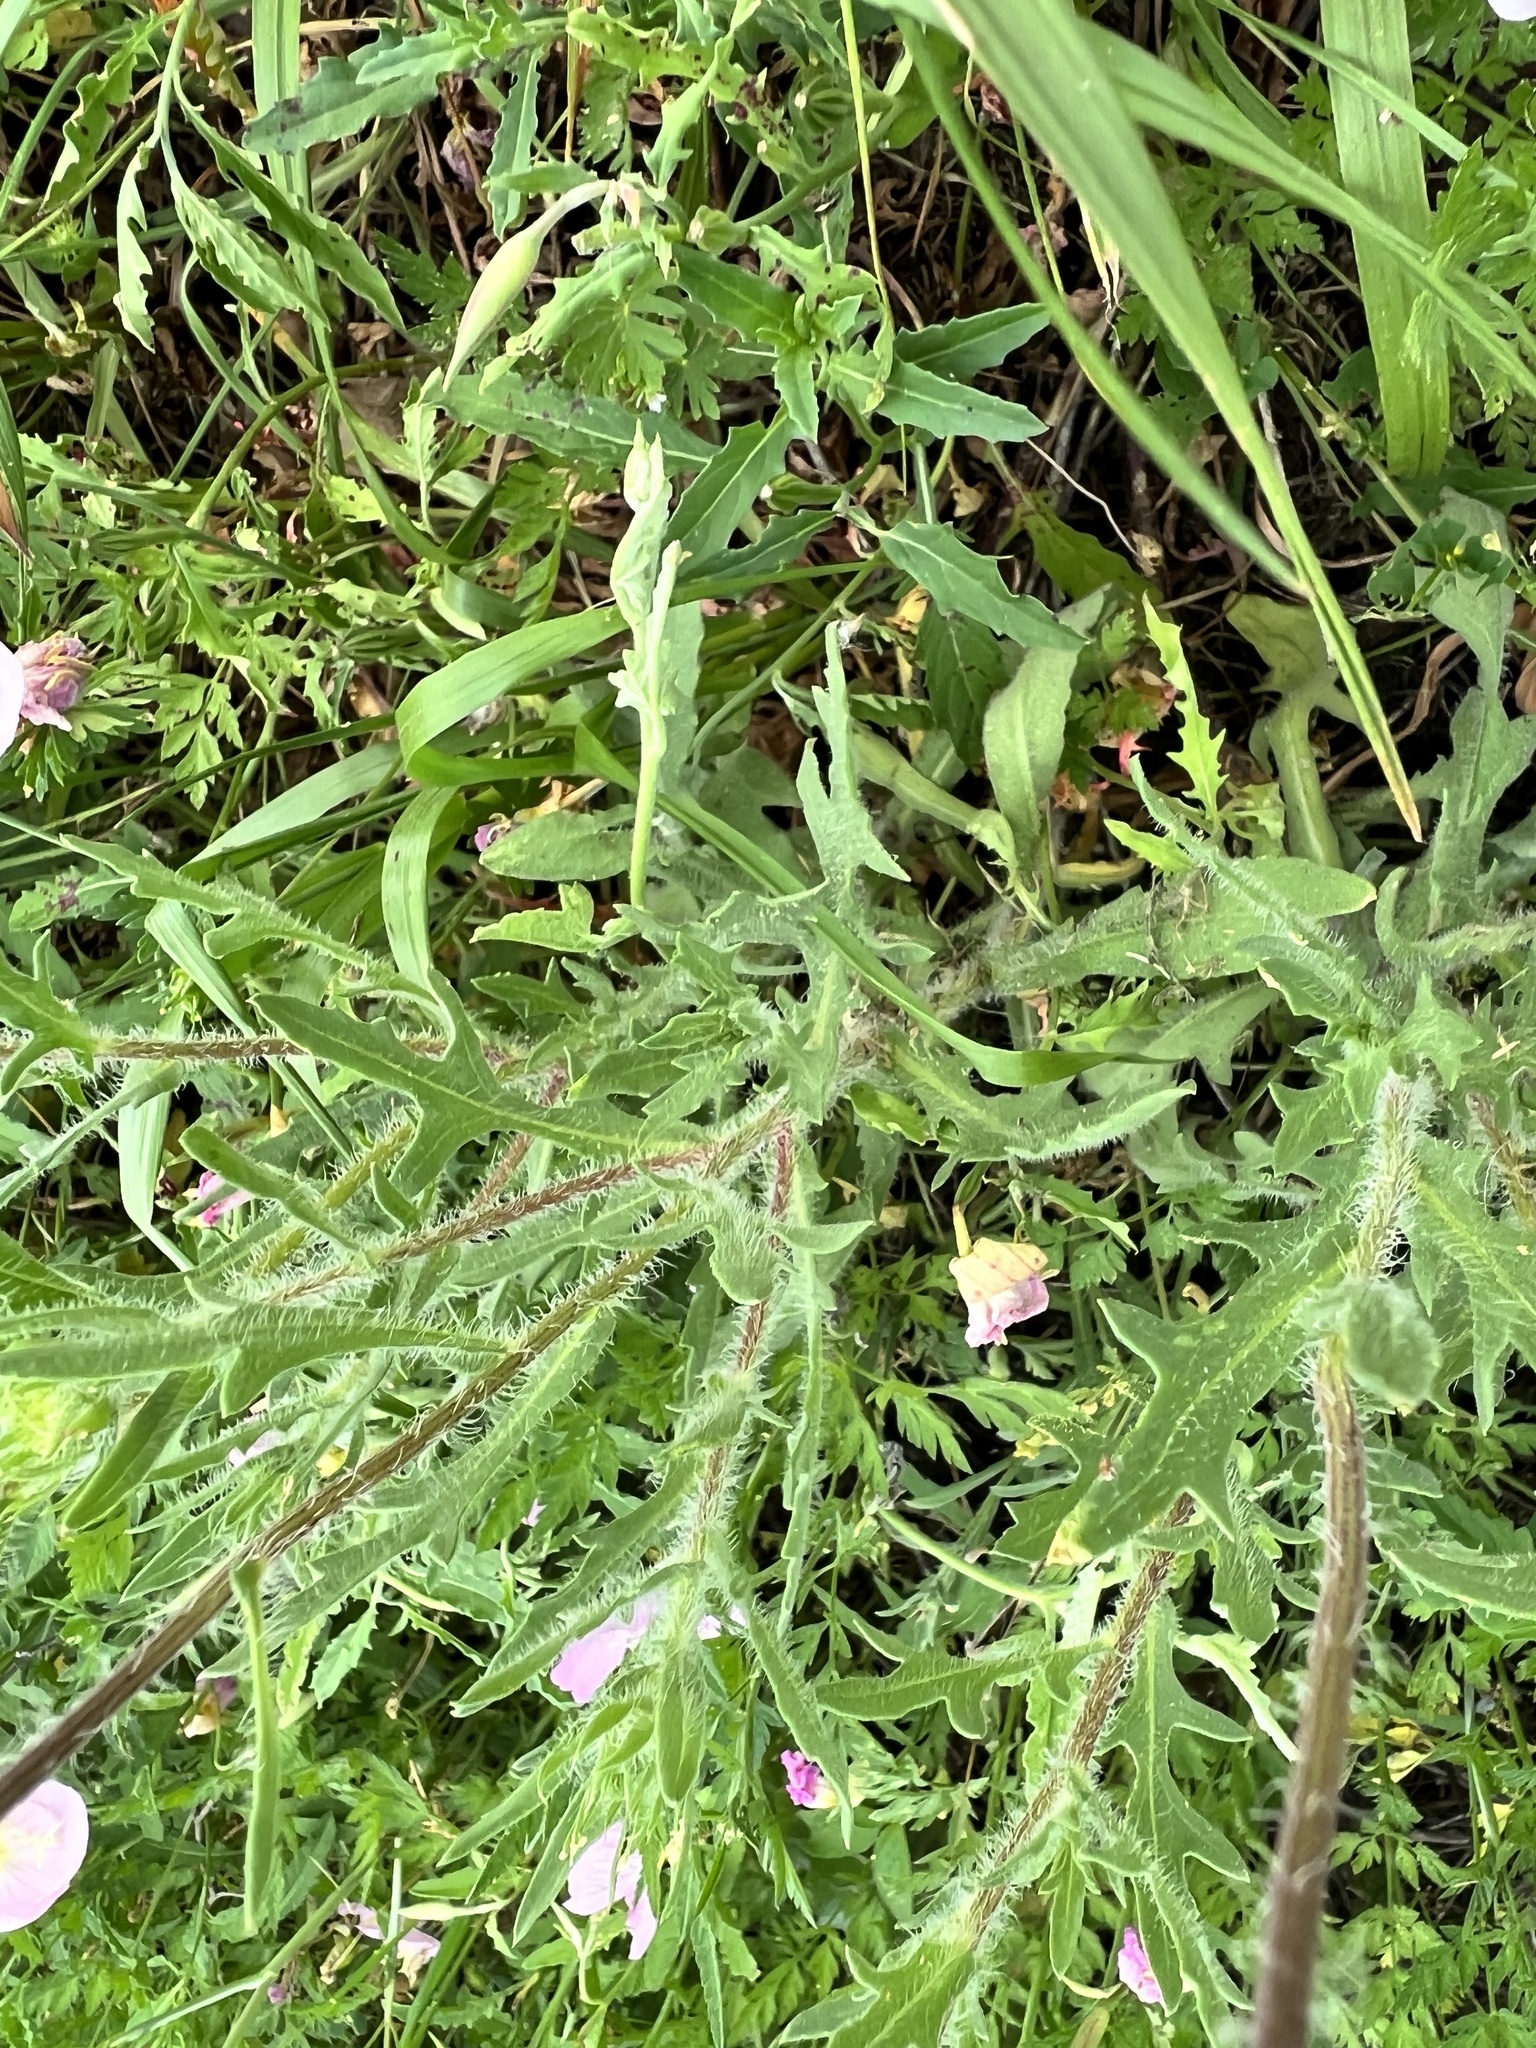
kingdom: Plantae
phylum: Tracheophyta
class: Magnoliopsida
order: Asterales
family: Asteraceae
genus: Gaillardia
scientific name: Gaillardia pulchella
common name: Firewheel
